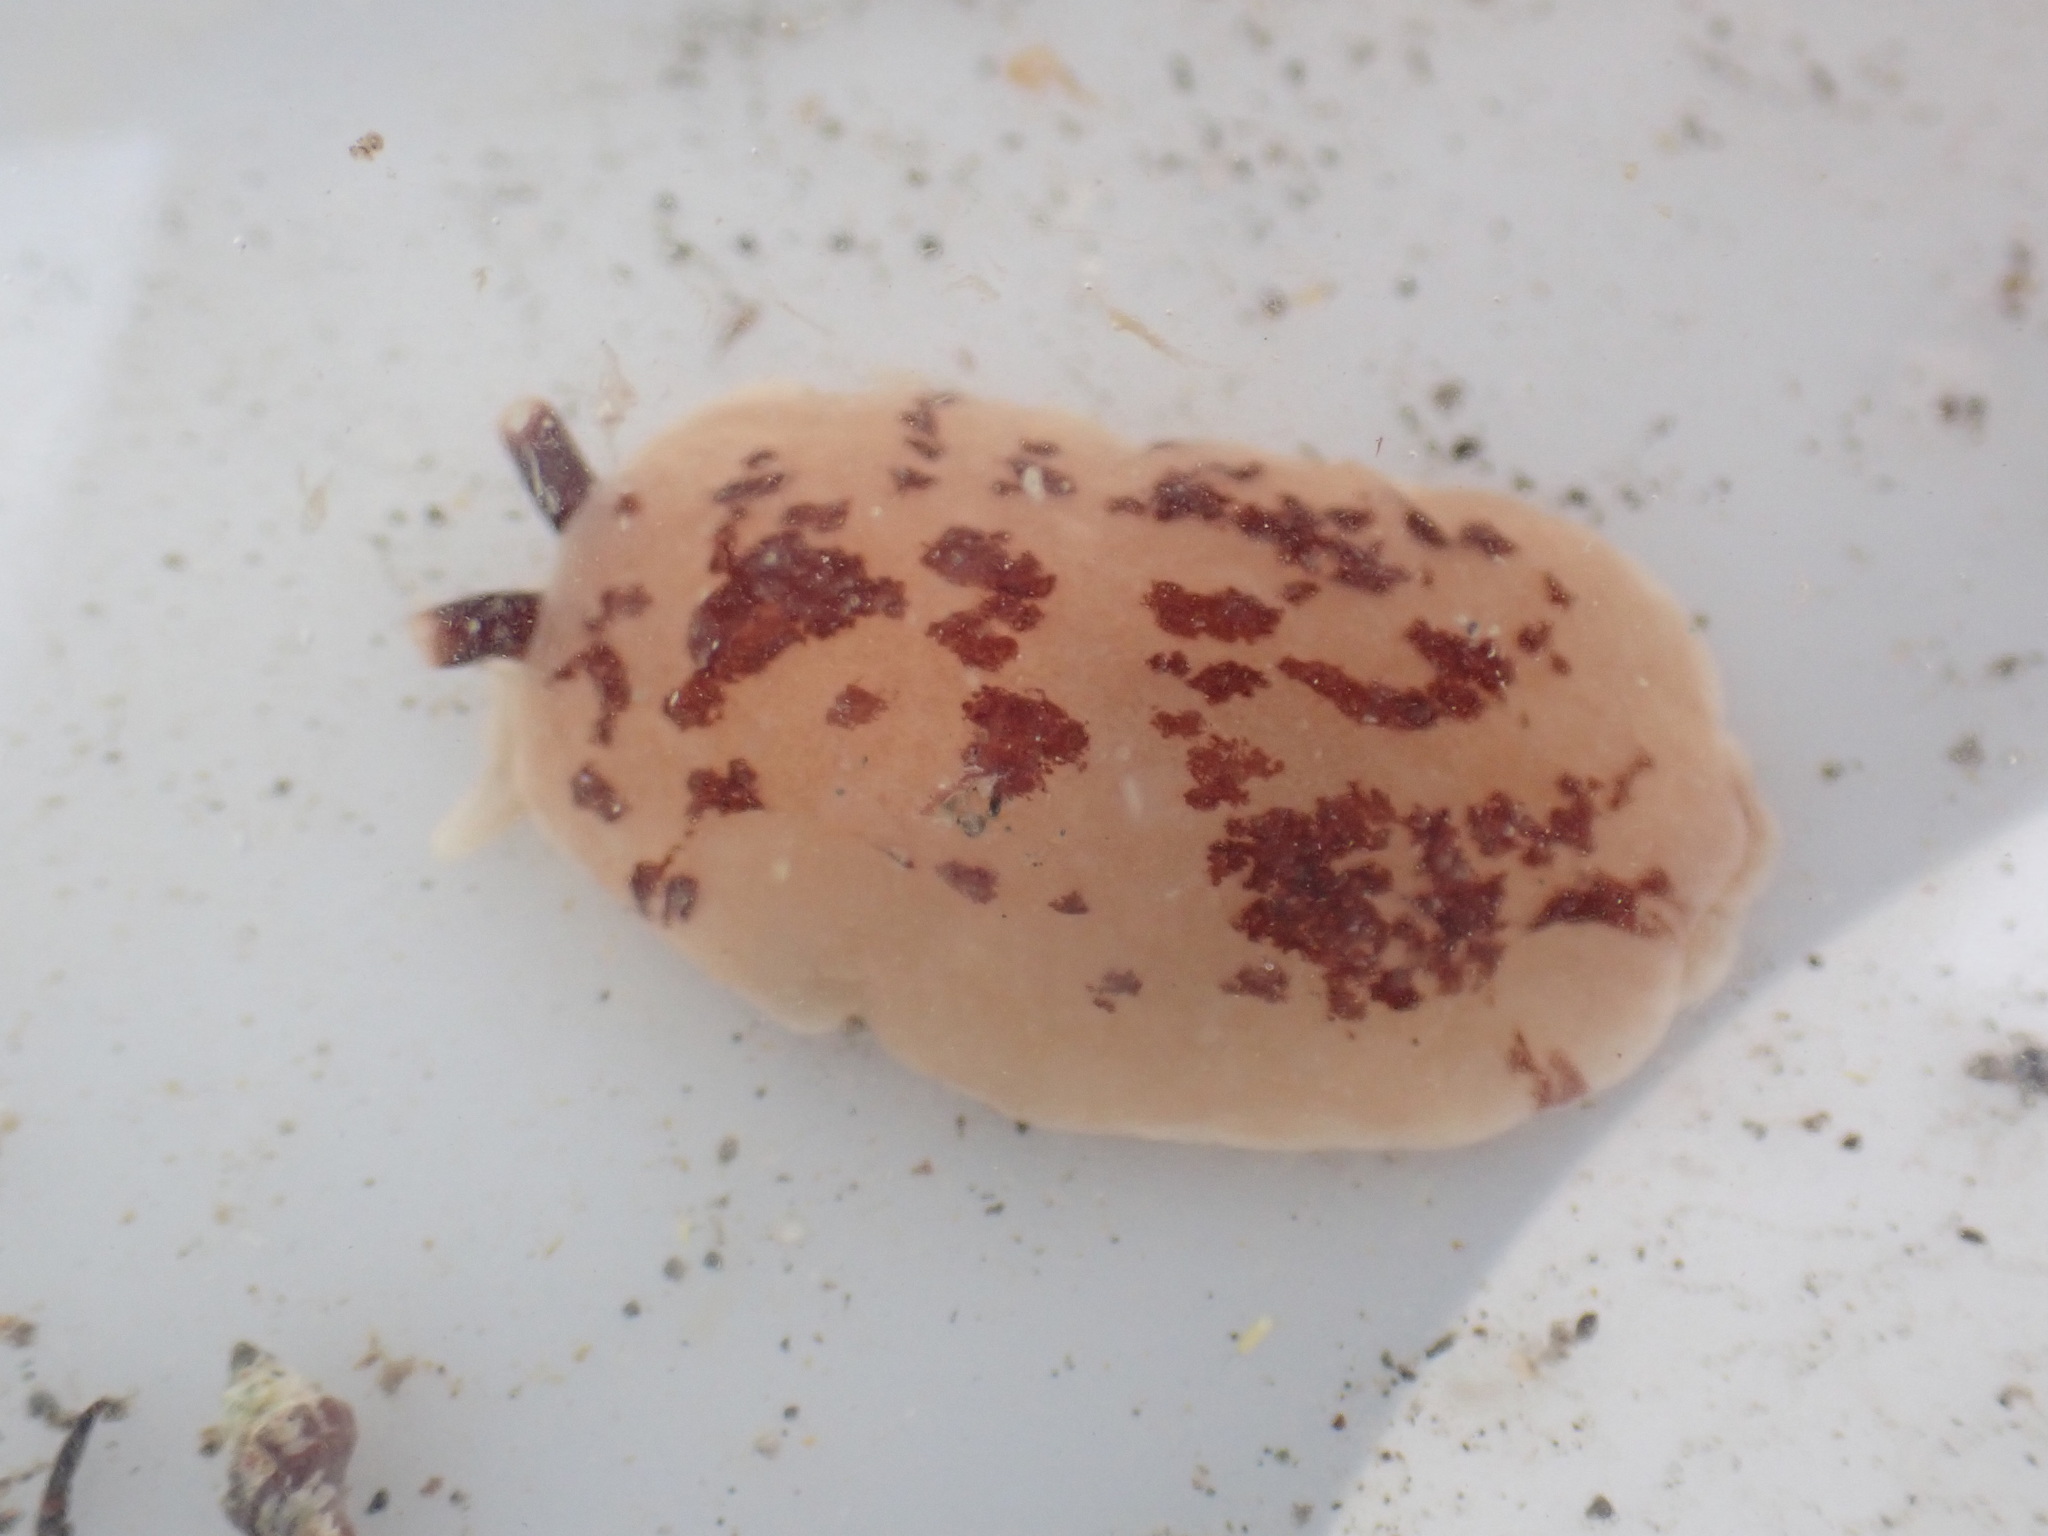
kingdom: Animalia
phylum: Mollusca
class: Gastropoda
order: Pleurobranchida
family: Pleurobranchidae
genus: Berthella
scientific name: Berthella ornata
